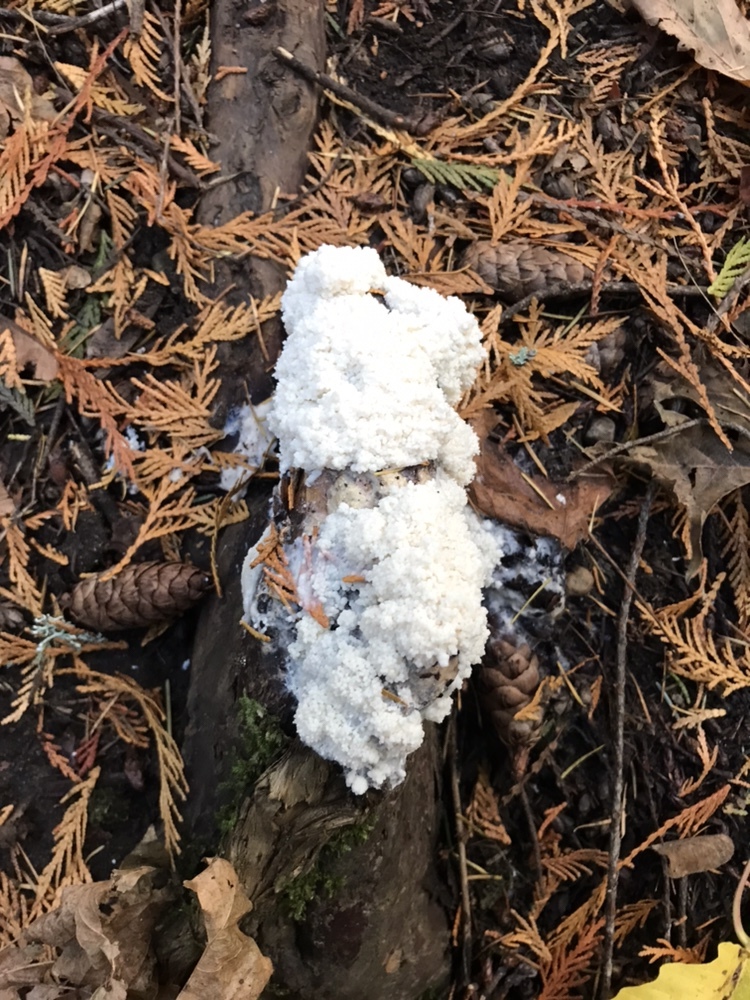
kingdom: Protozoa
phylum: Mycetozoa
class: Myxomycetes
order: Stemonitidales
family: Stemonitidaceae
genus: Brefeldia
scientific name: Brefeldia maxima
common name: Tapioca slime mold
